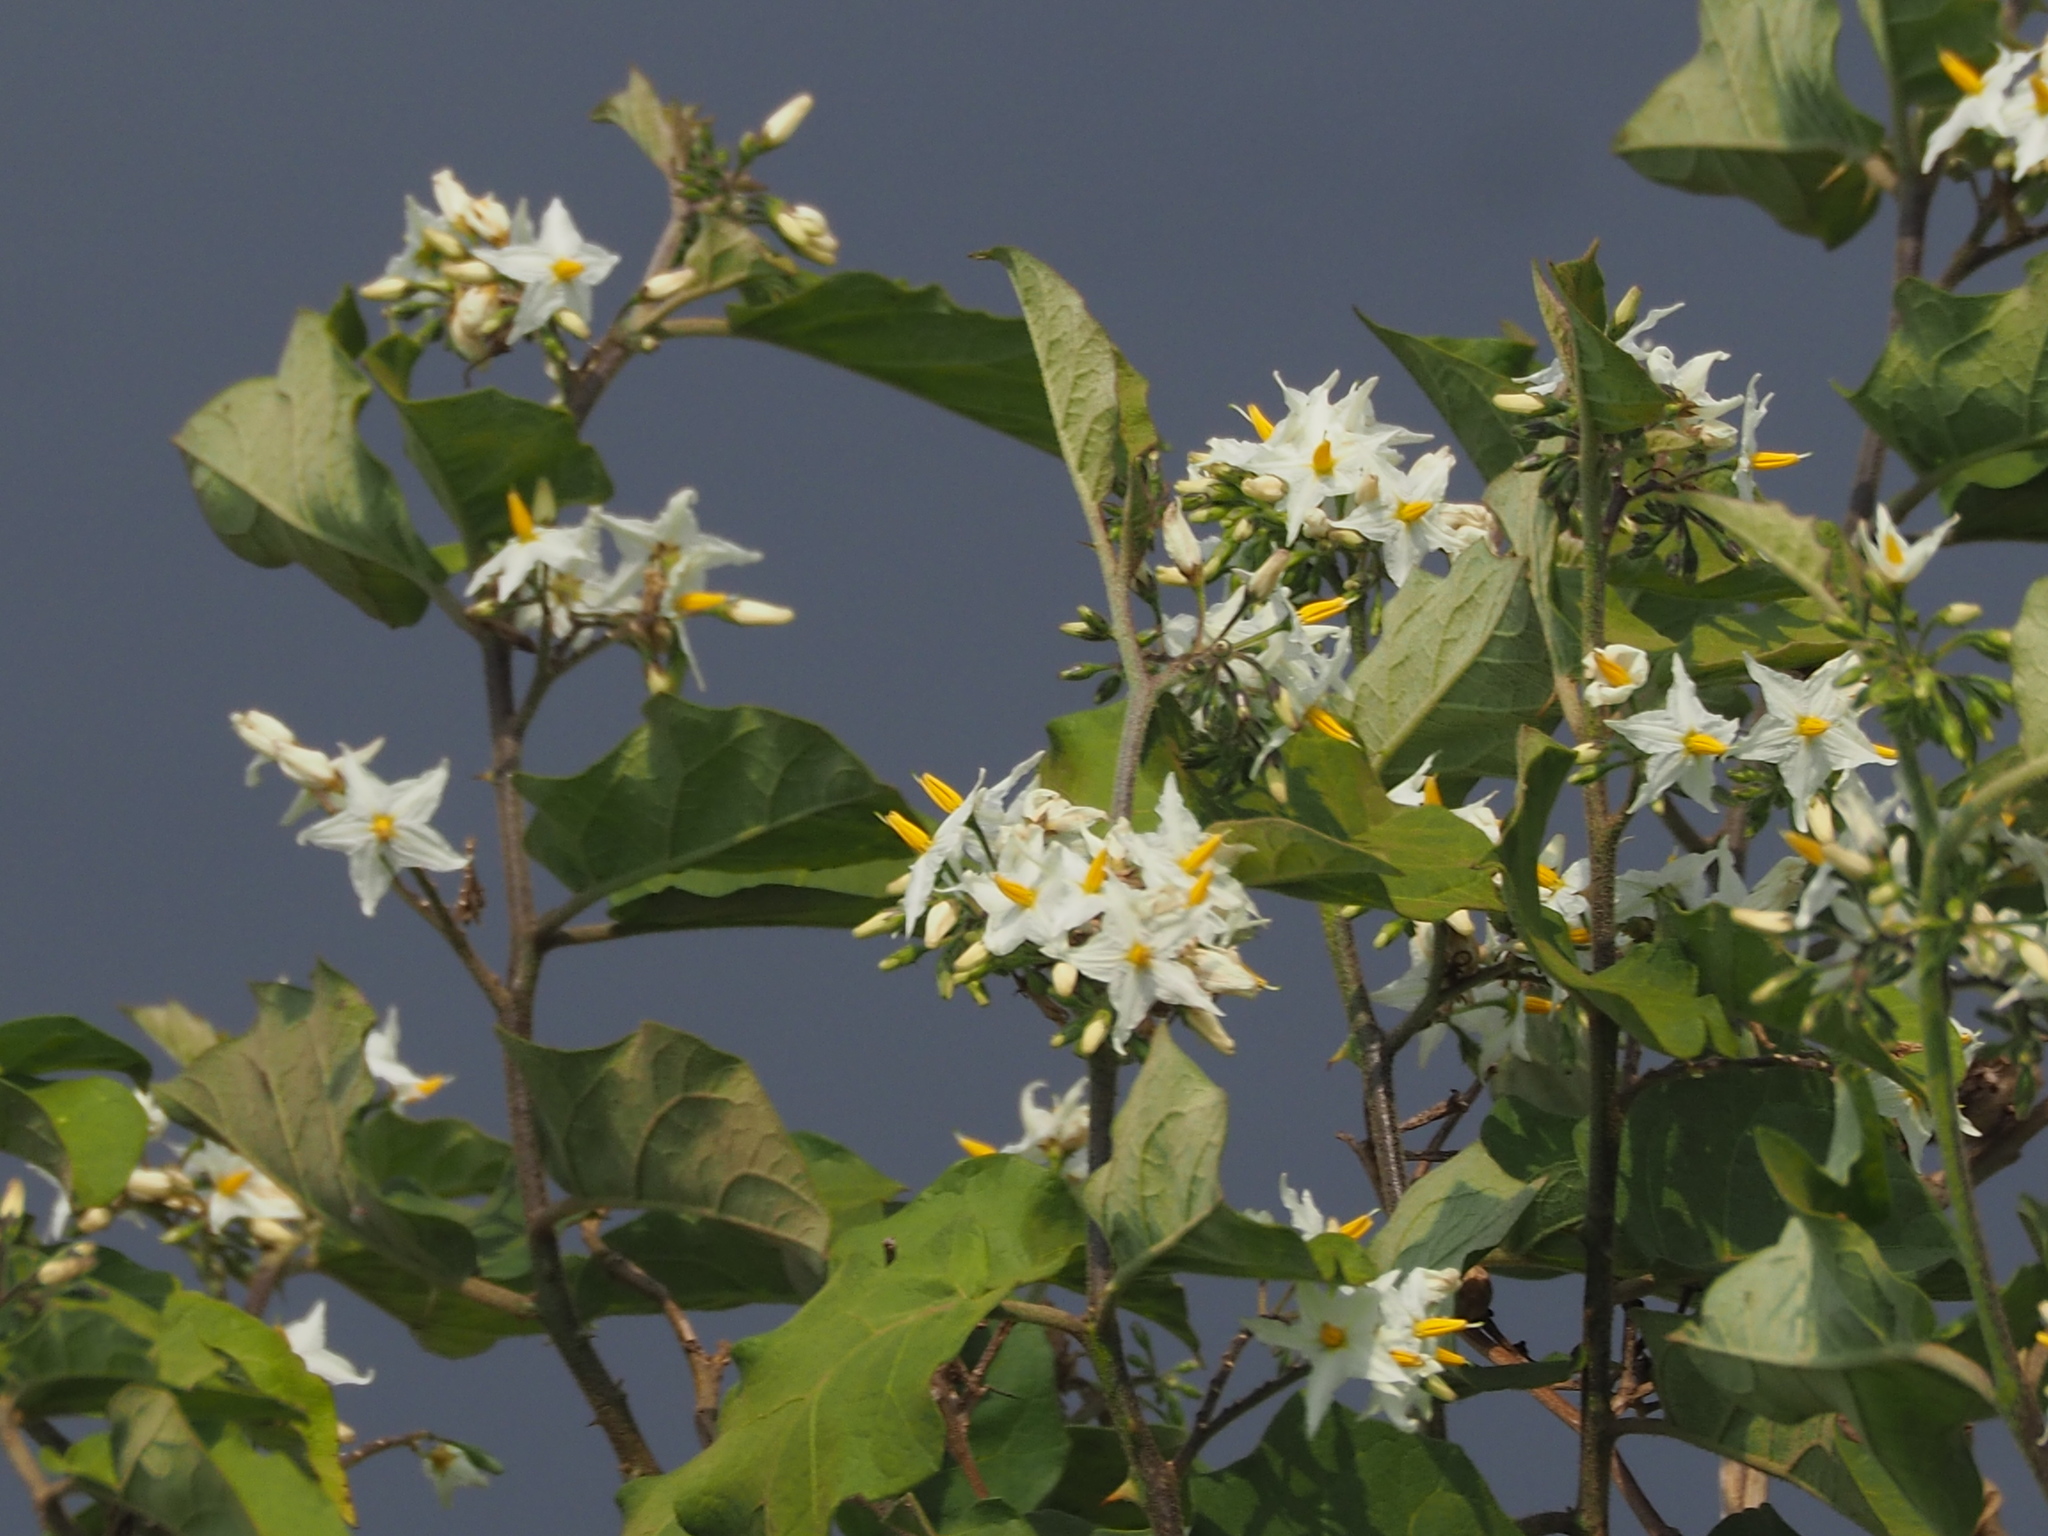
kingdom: Plantae
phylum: Tracheophyta
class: Magnoliopsida
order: Solanales
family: Solanaceae
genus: Solanum
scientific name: Solanum torvum
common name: Turkey berry
